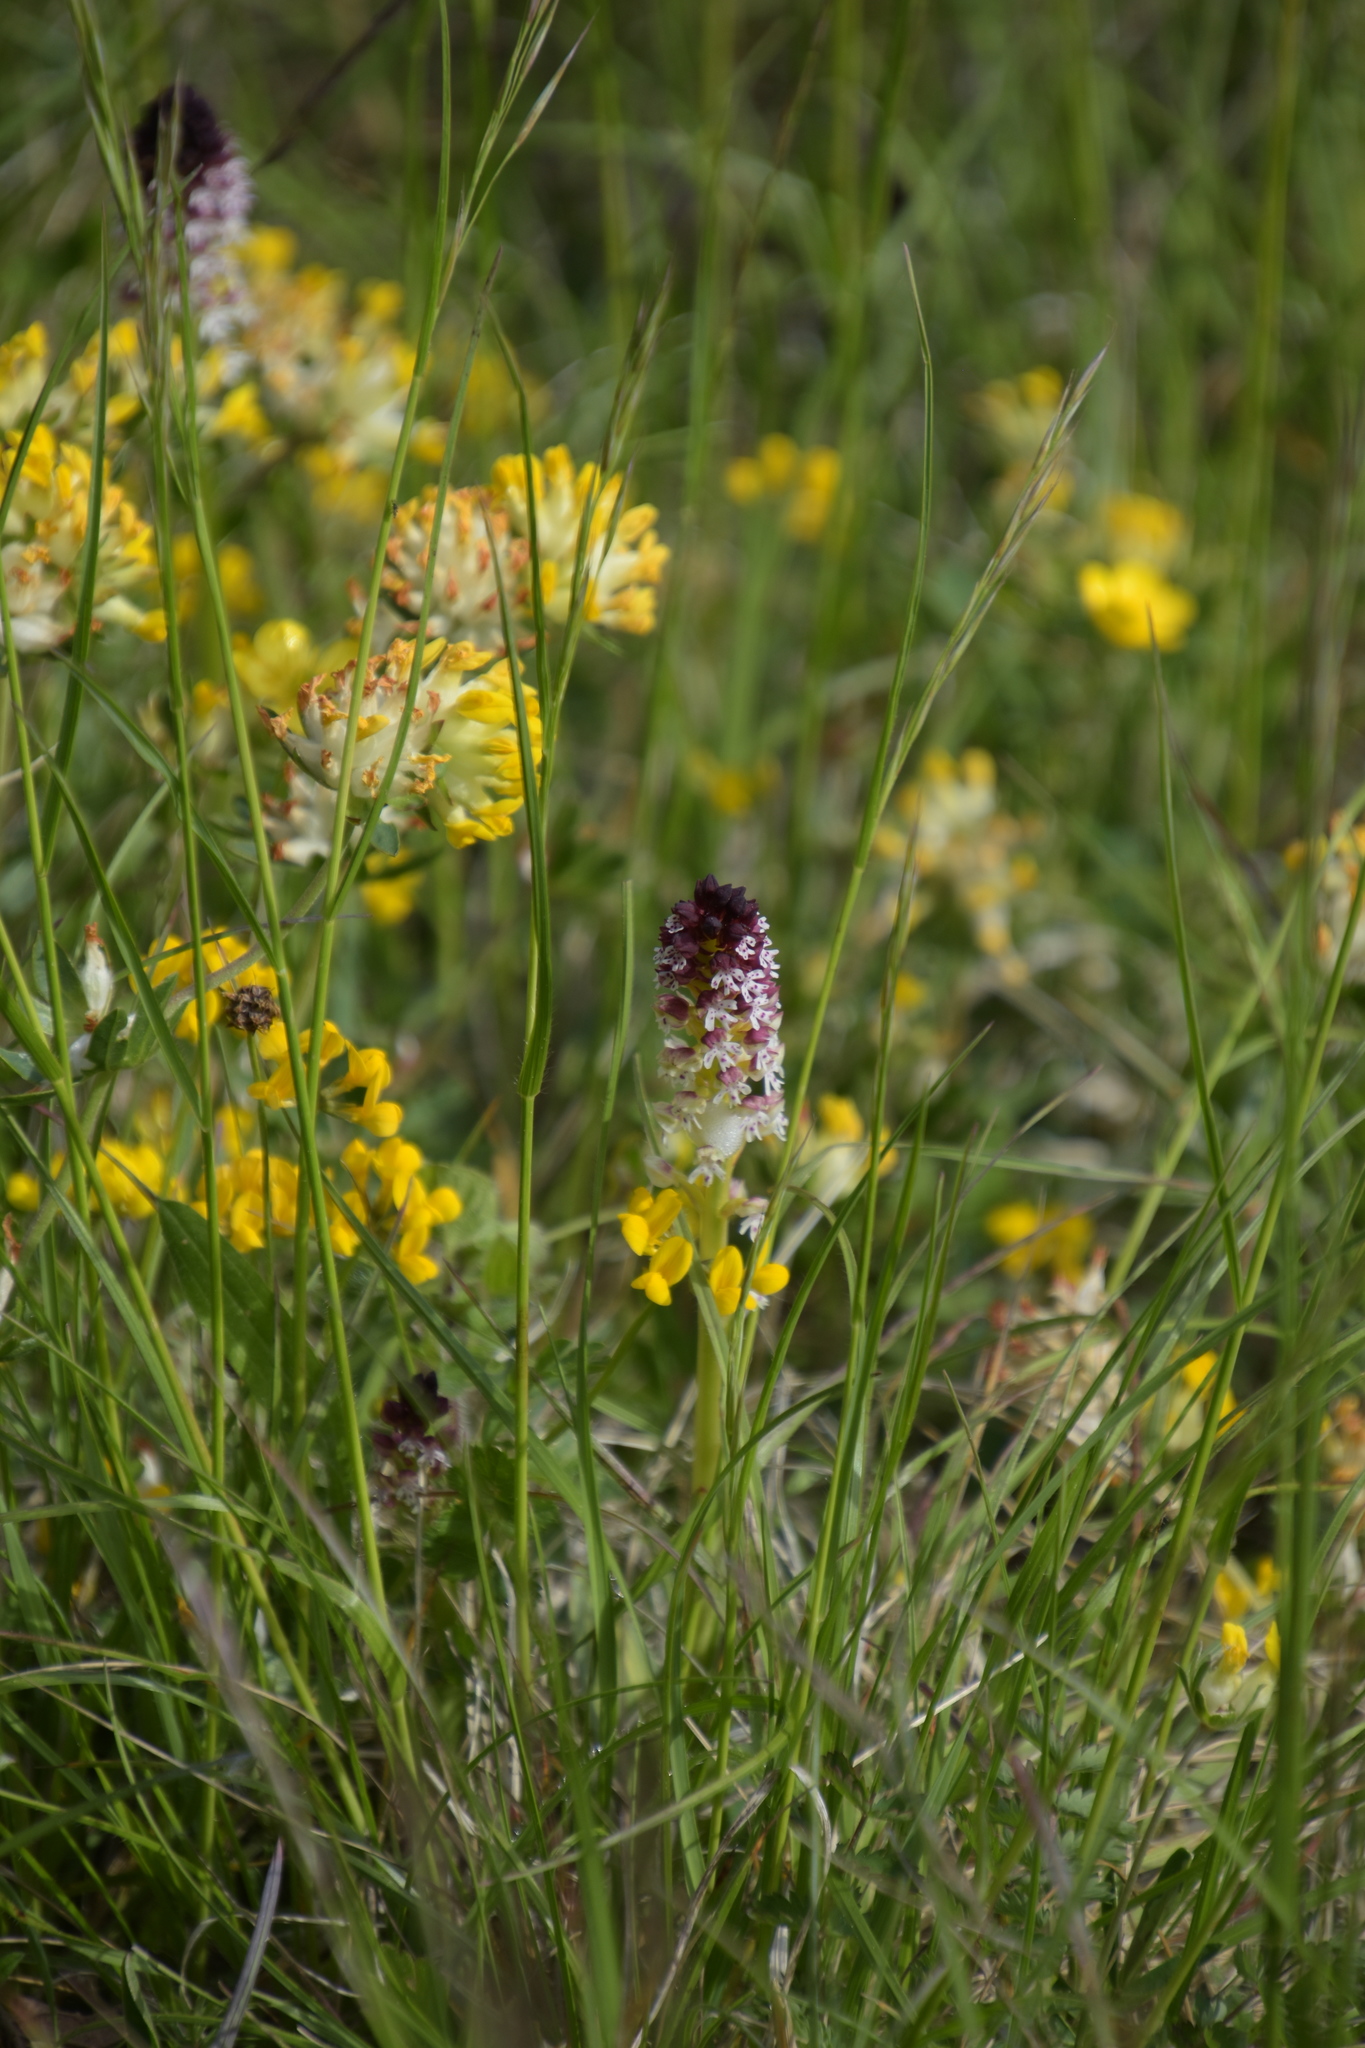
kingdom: Plantae
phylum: Tracheophyta
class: Liliopsida
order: Asparagales
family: Orchidaceae
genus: Neotinea
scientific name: Neotinea ustulata
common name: Burnt orchid
